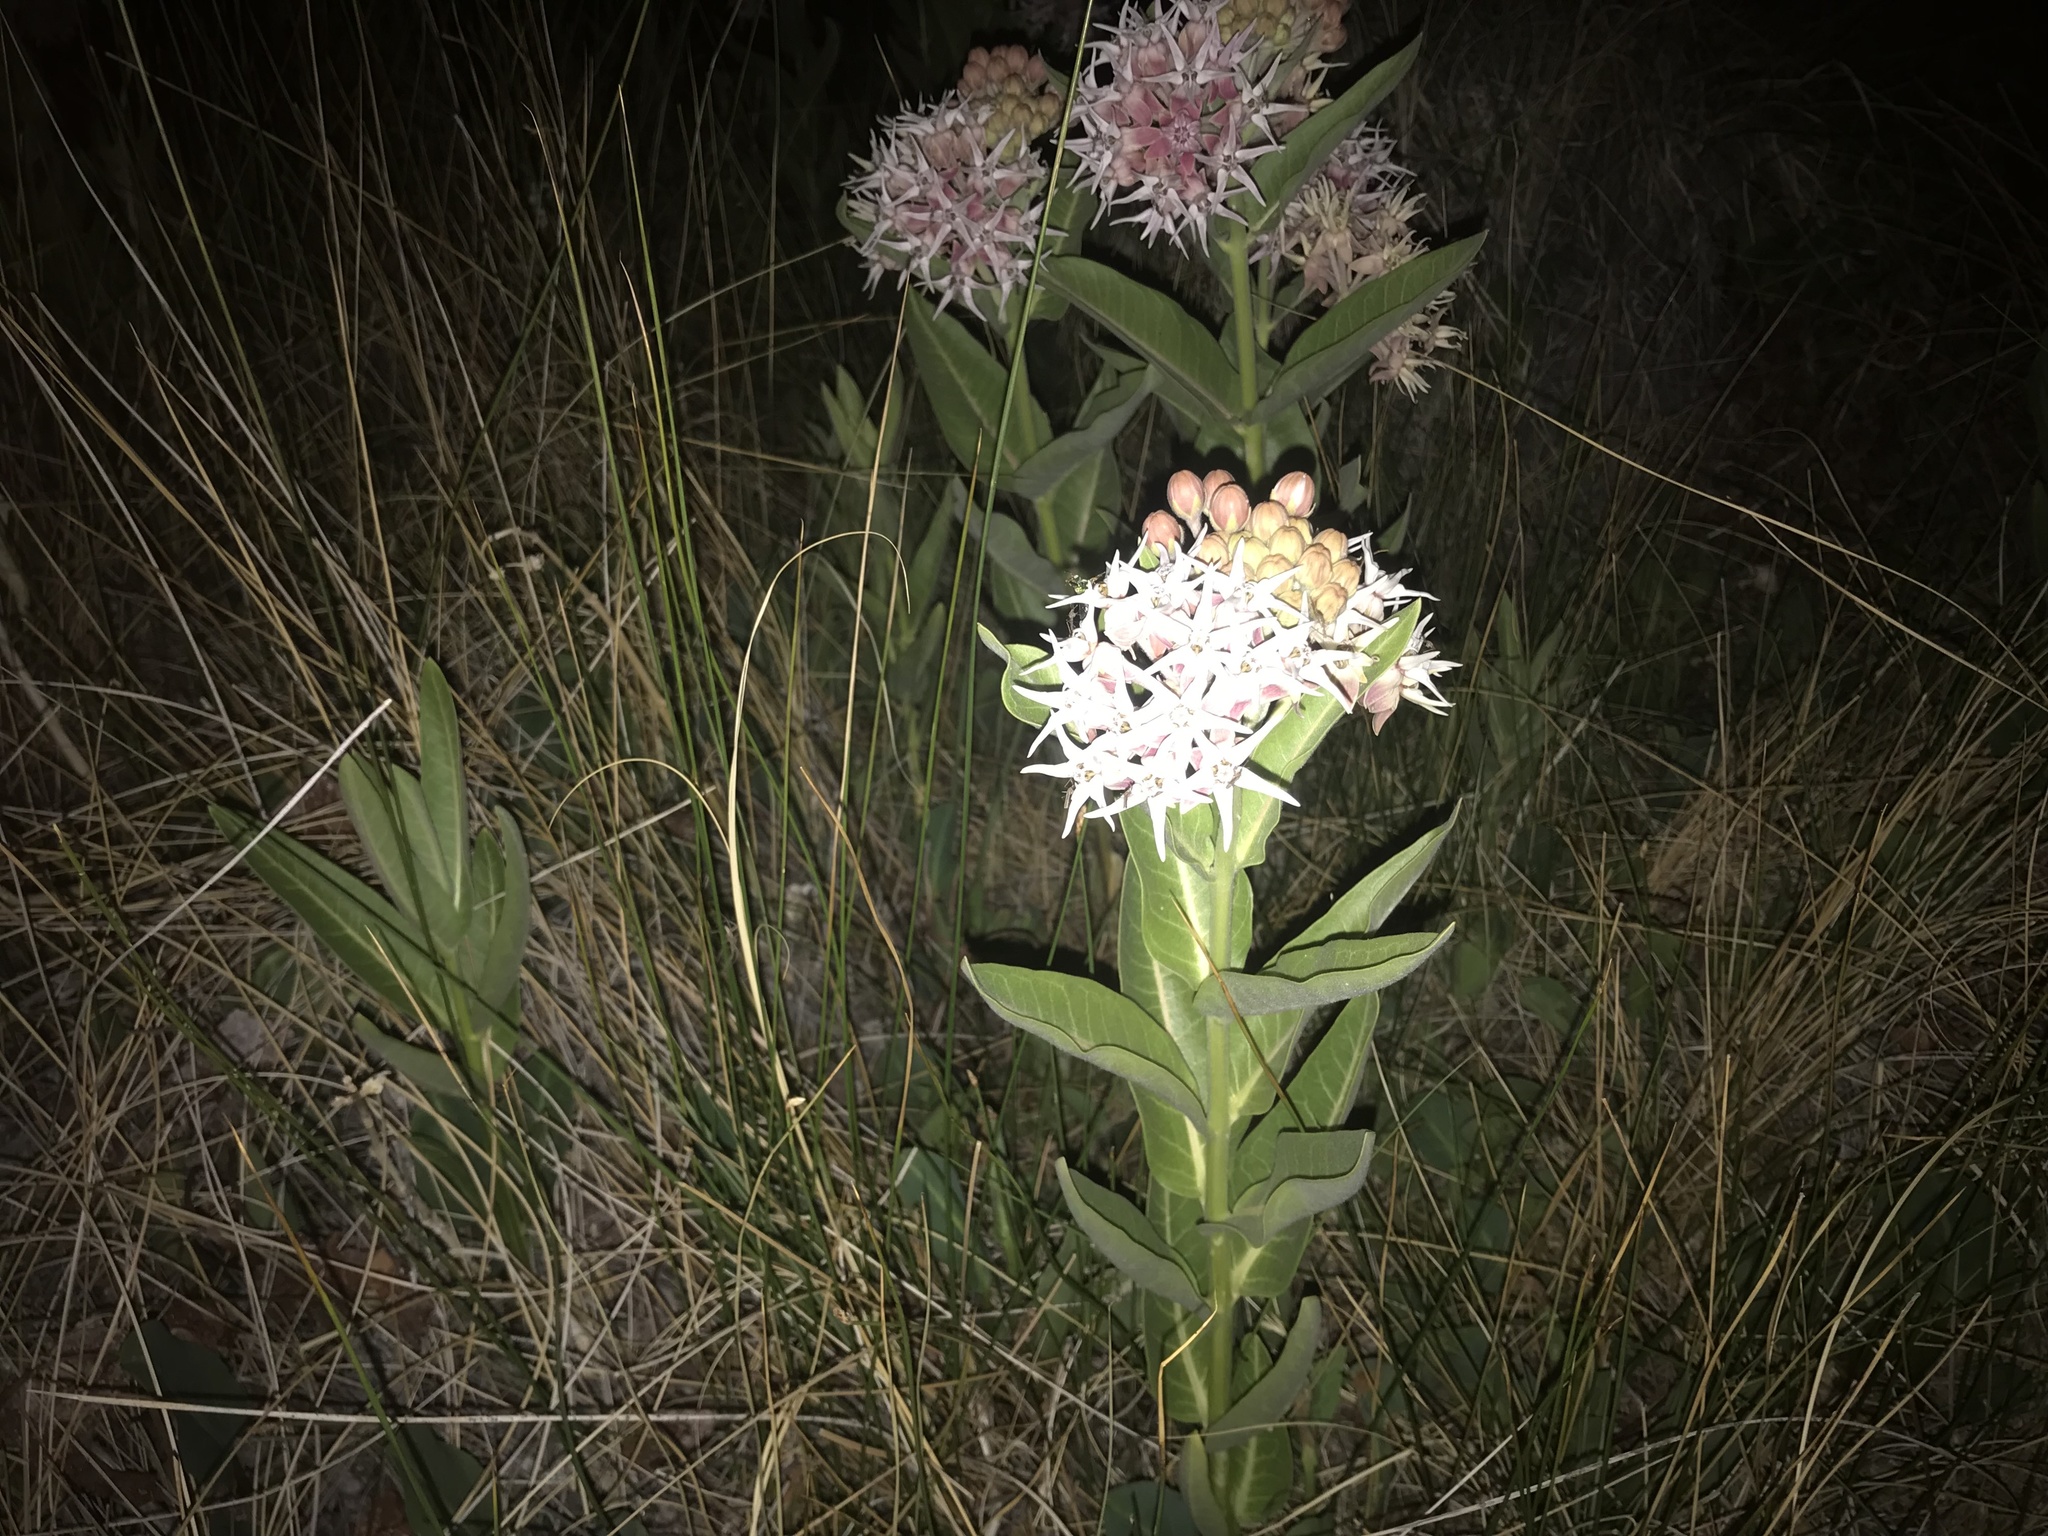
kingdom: Plantae
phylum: Tracheophyta
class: Magnoliopsida
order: Gentianales
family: Apocynaceae
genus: Asclepias
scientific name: Asclepias speciosa
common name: Showy milkweed
